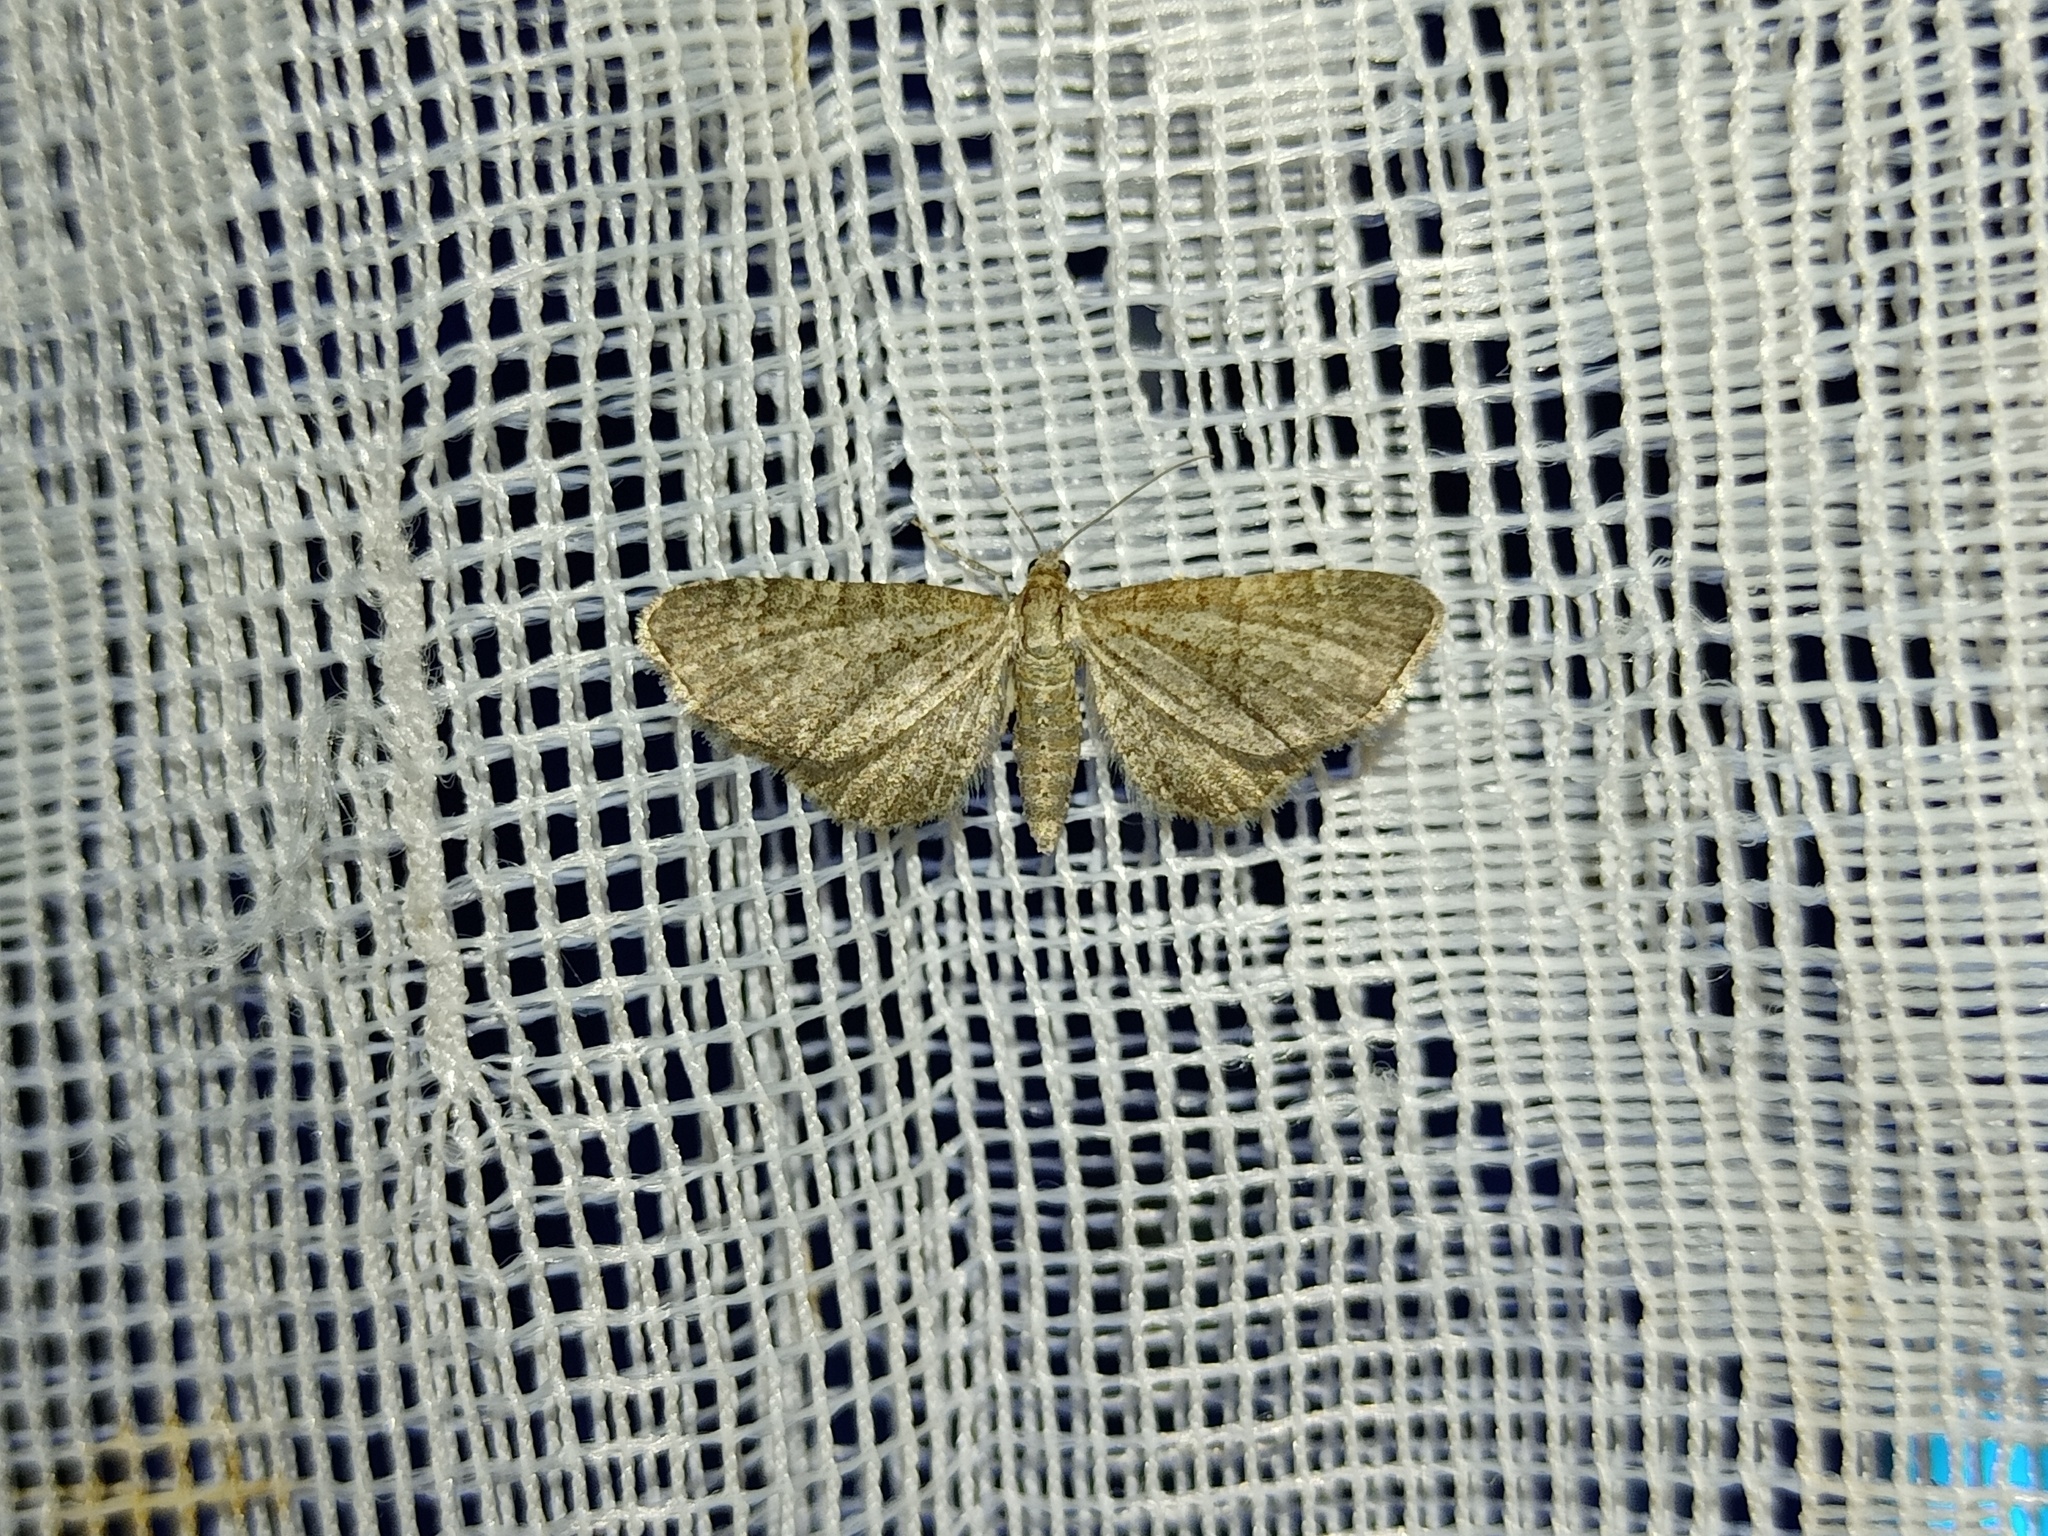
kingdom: Animalia
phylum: Arthropoda
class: Insecta
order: Lepidoptera
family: Geometridae
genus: Eupithecia
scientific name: Eupithecia plumbeolata
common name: Lead-coloured pug
